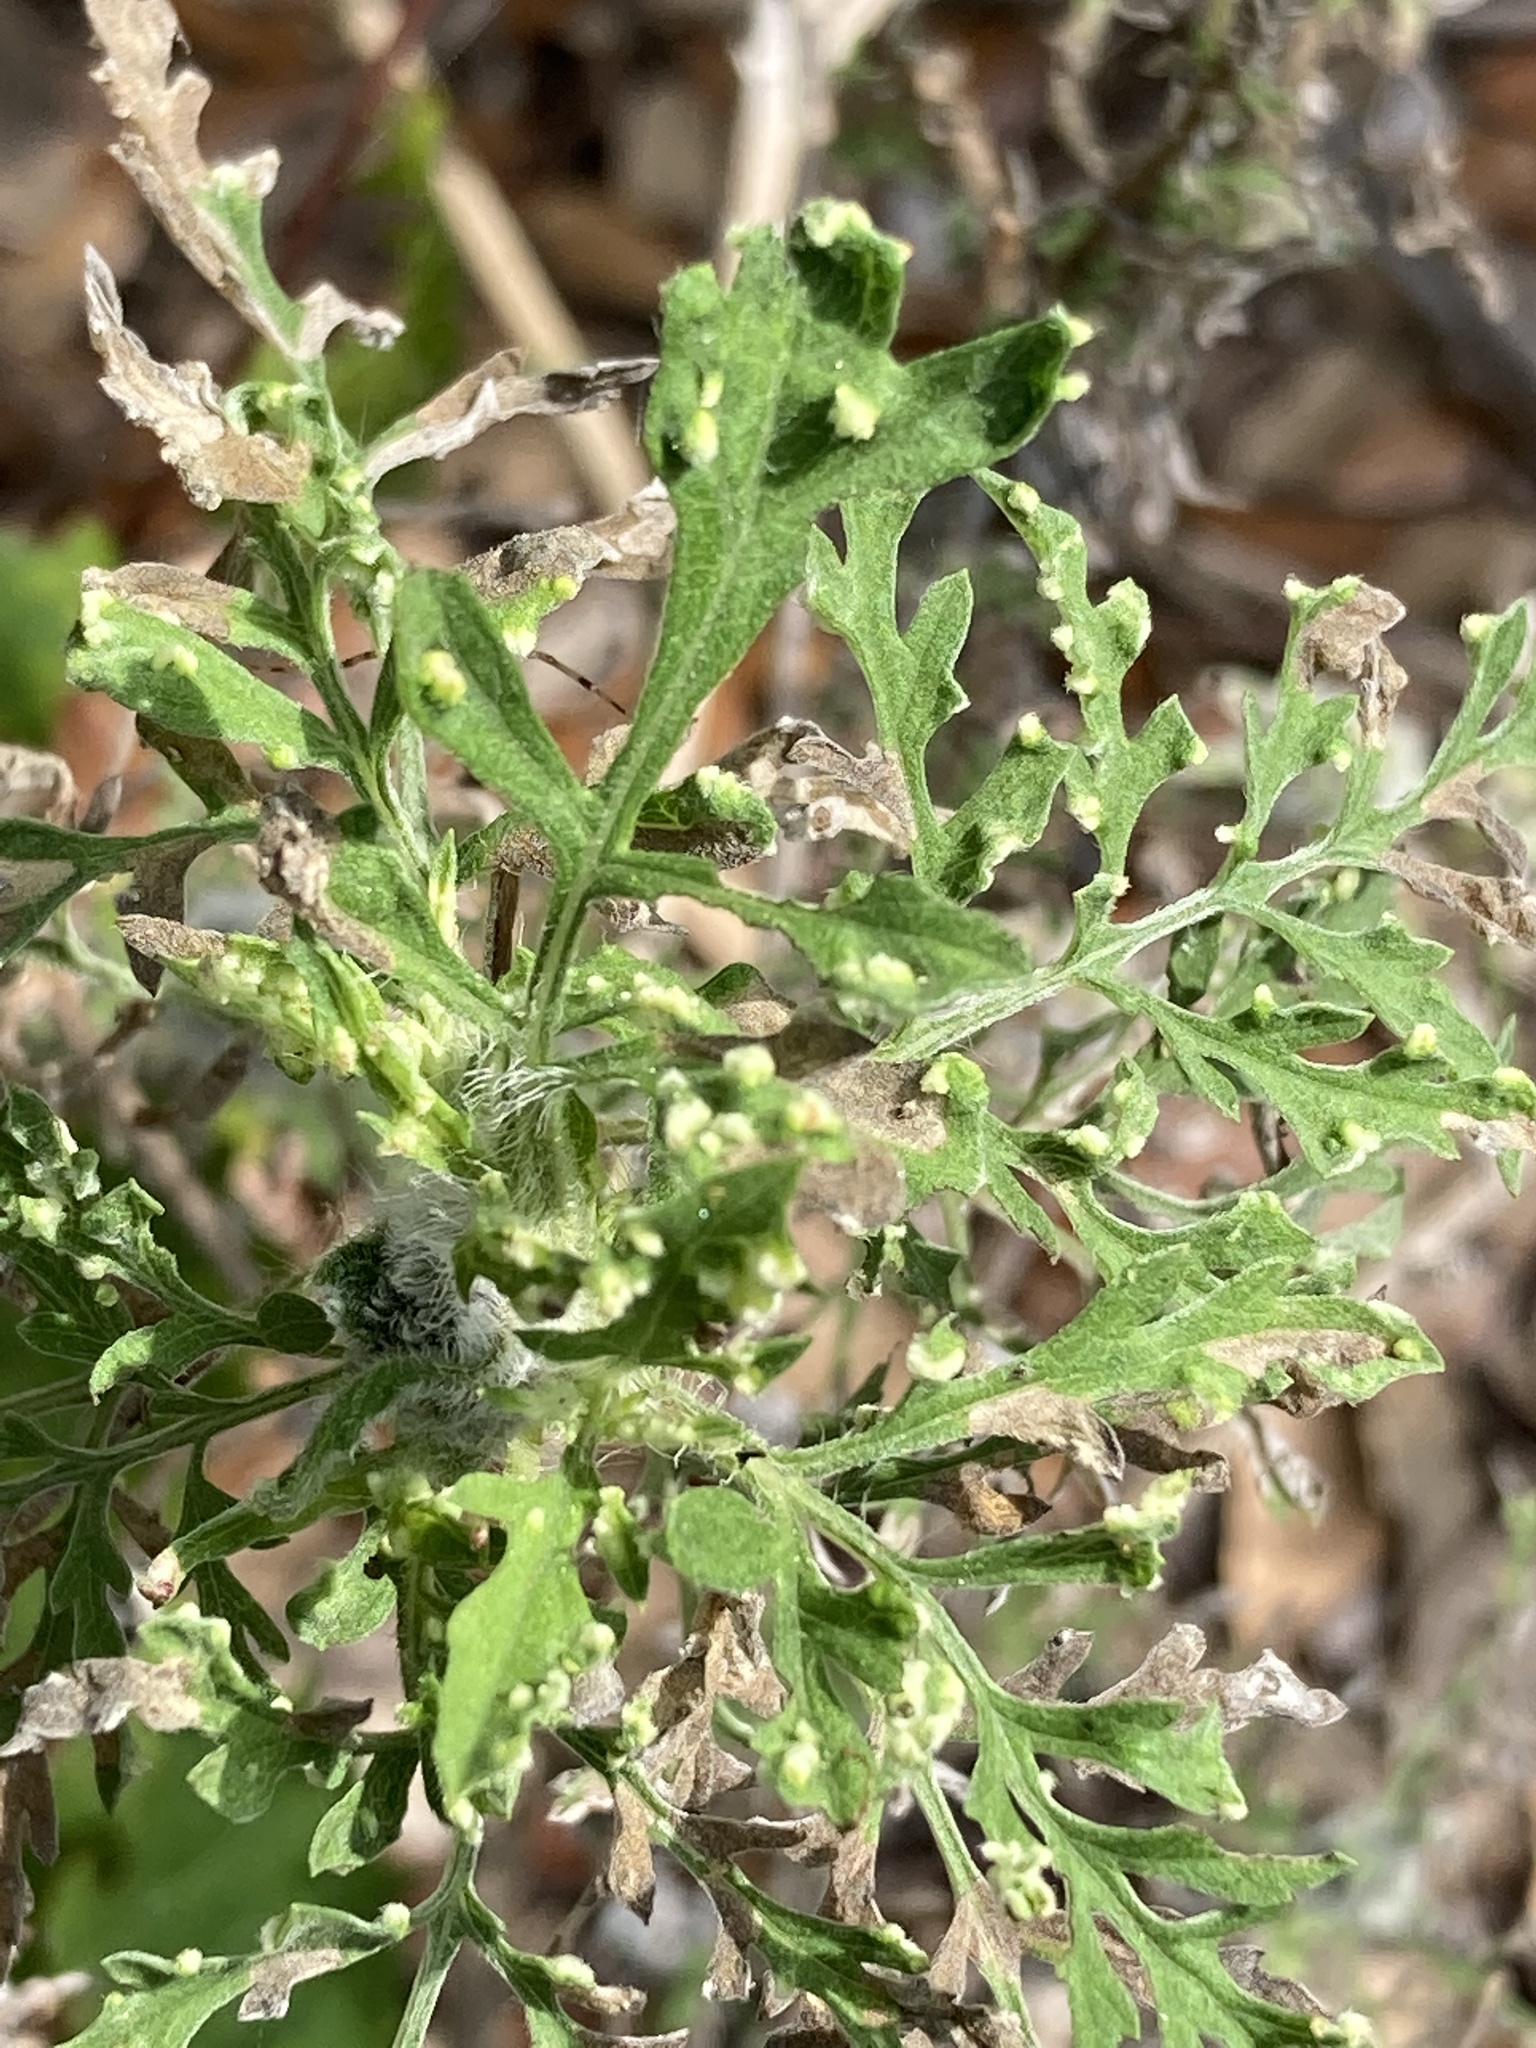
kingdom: Plantae
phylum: Tracheophyta
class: Magnoliopsida
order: Asterales
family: Asteraceae
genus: Ambrosia
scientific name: Ambrosia artemisiifolia
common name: Annual ragweed
